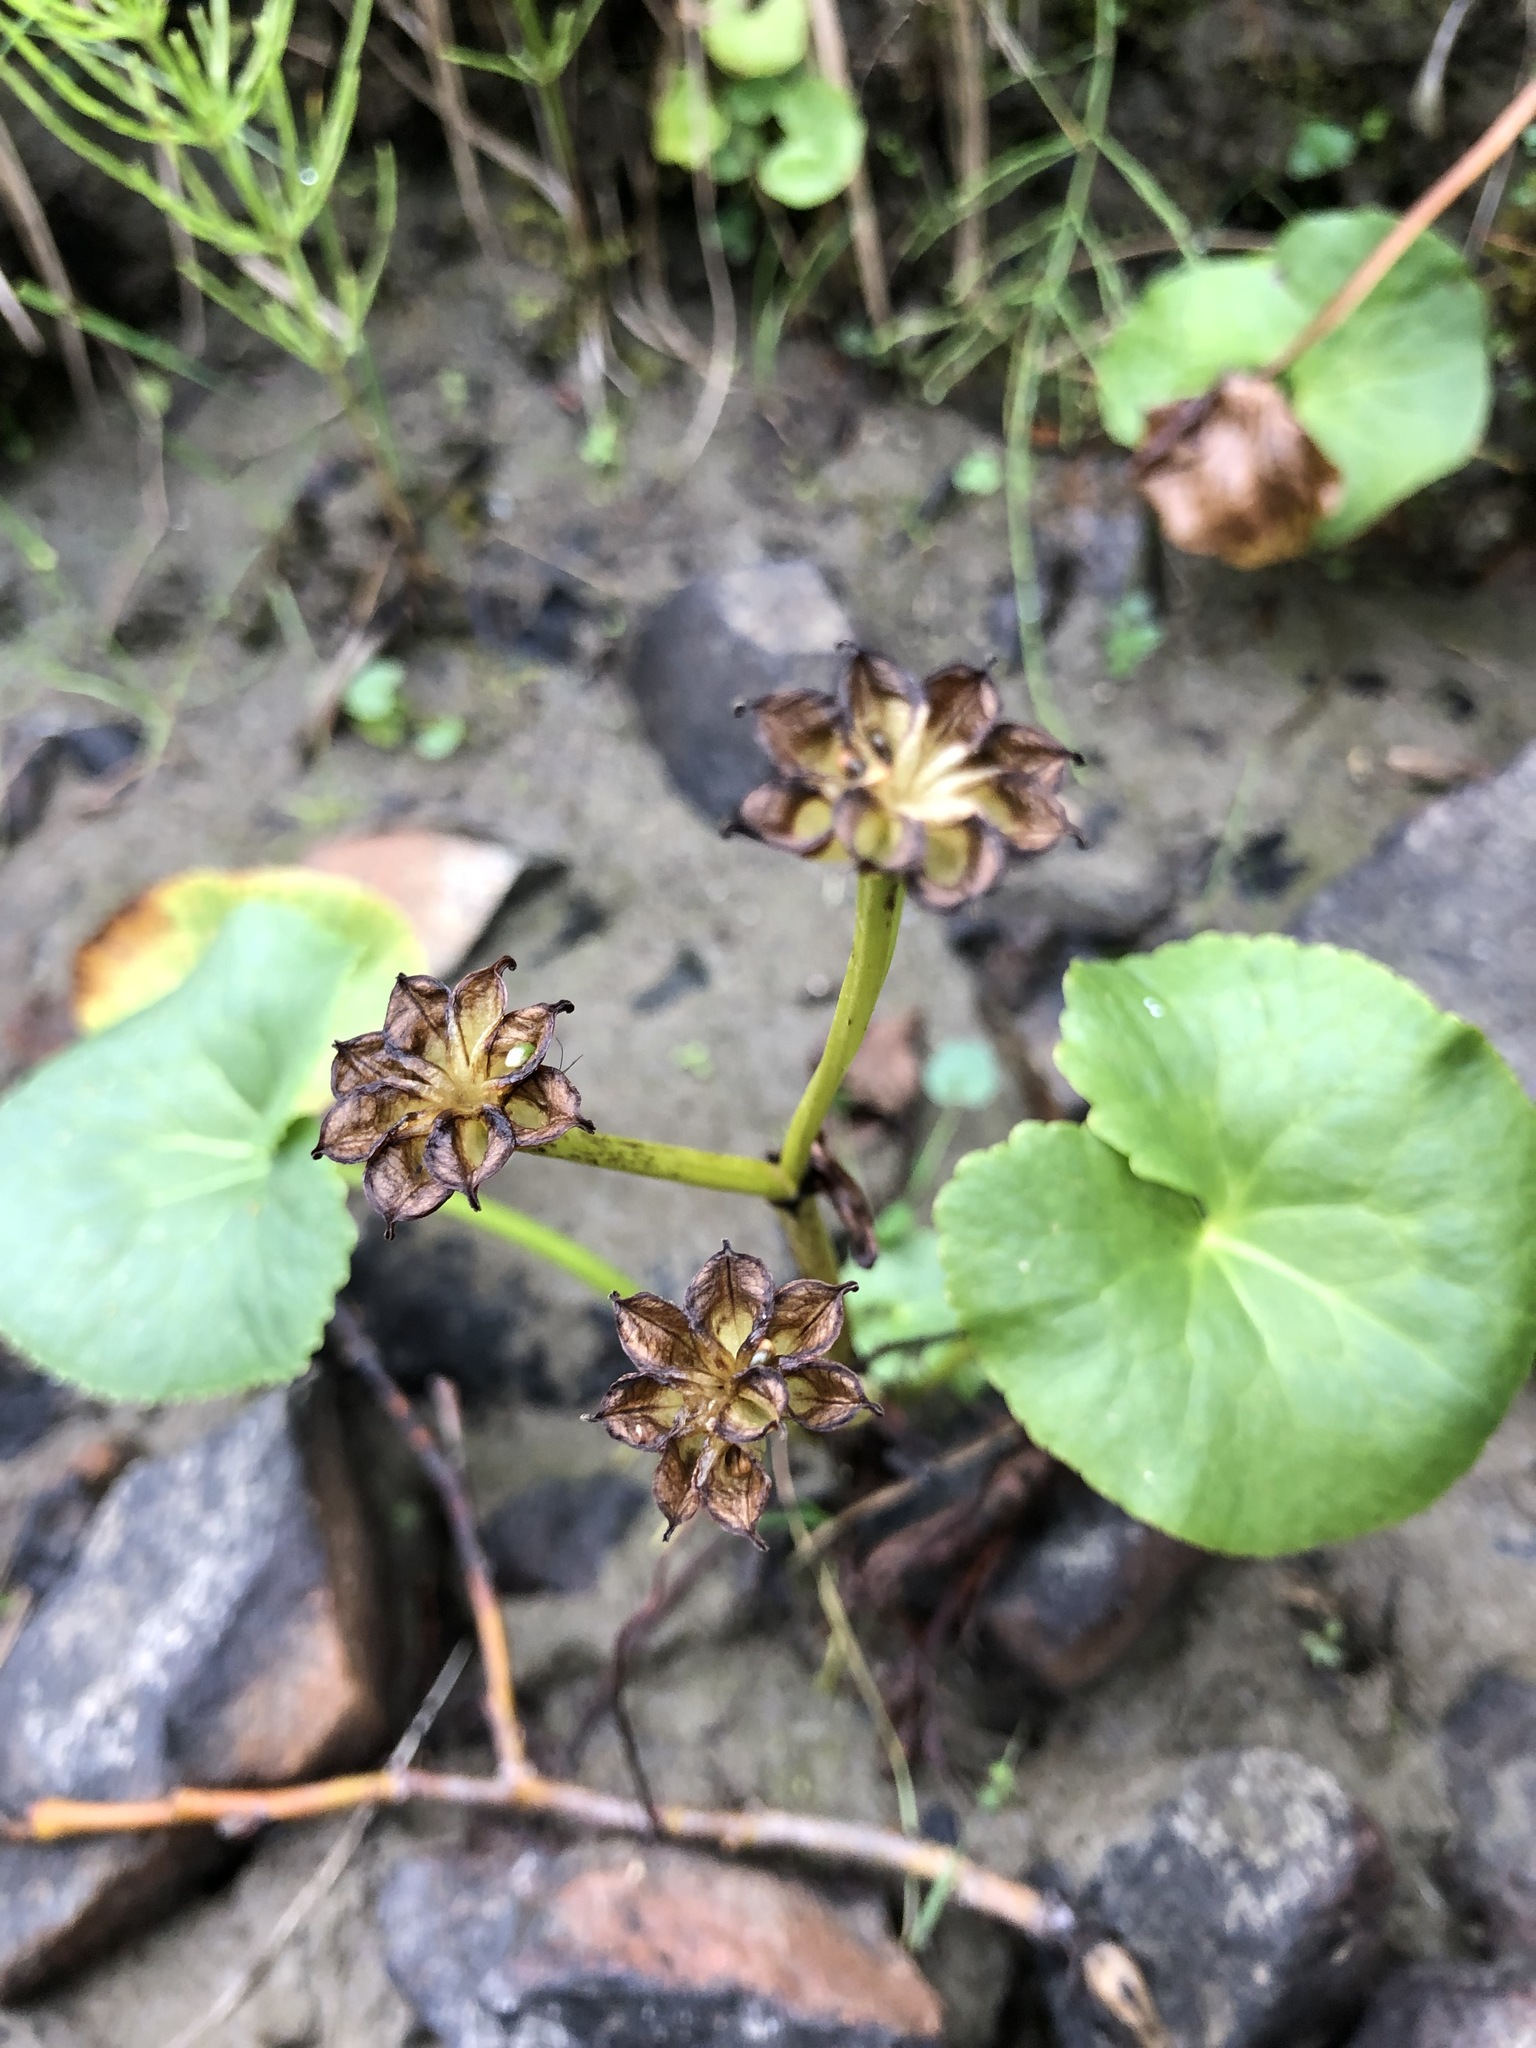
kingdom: Plantae
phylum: Tracheophyta
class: Magnoliopsida
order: Ranunculales
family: Ranunculaceae
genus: Caltha
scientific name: Caltha palustris
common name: Marsh marigold
